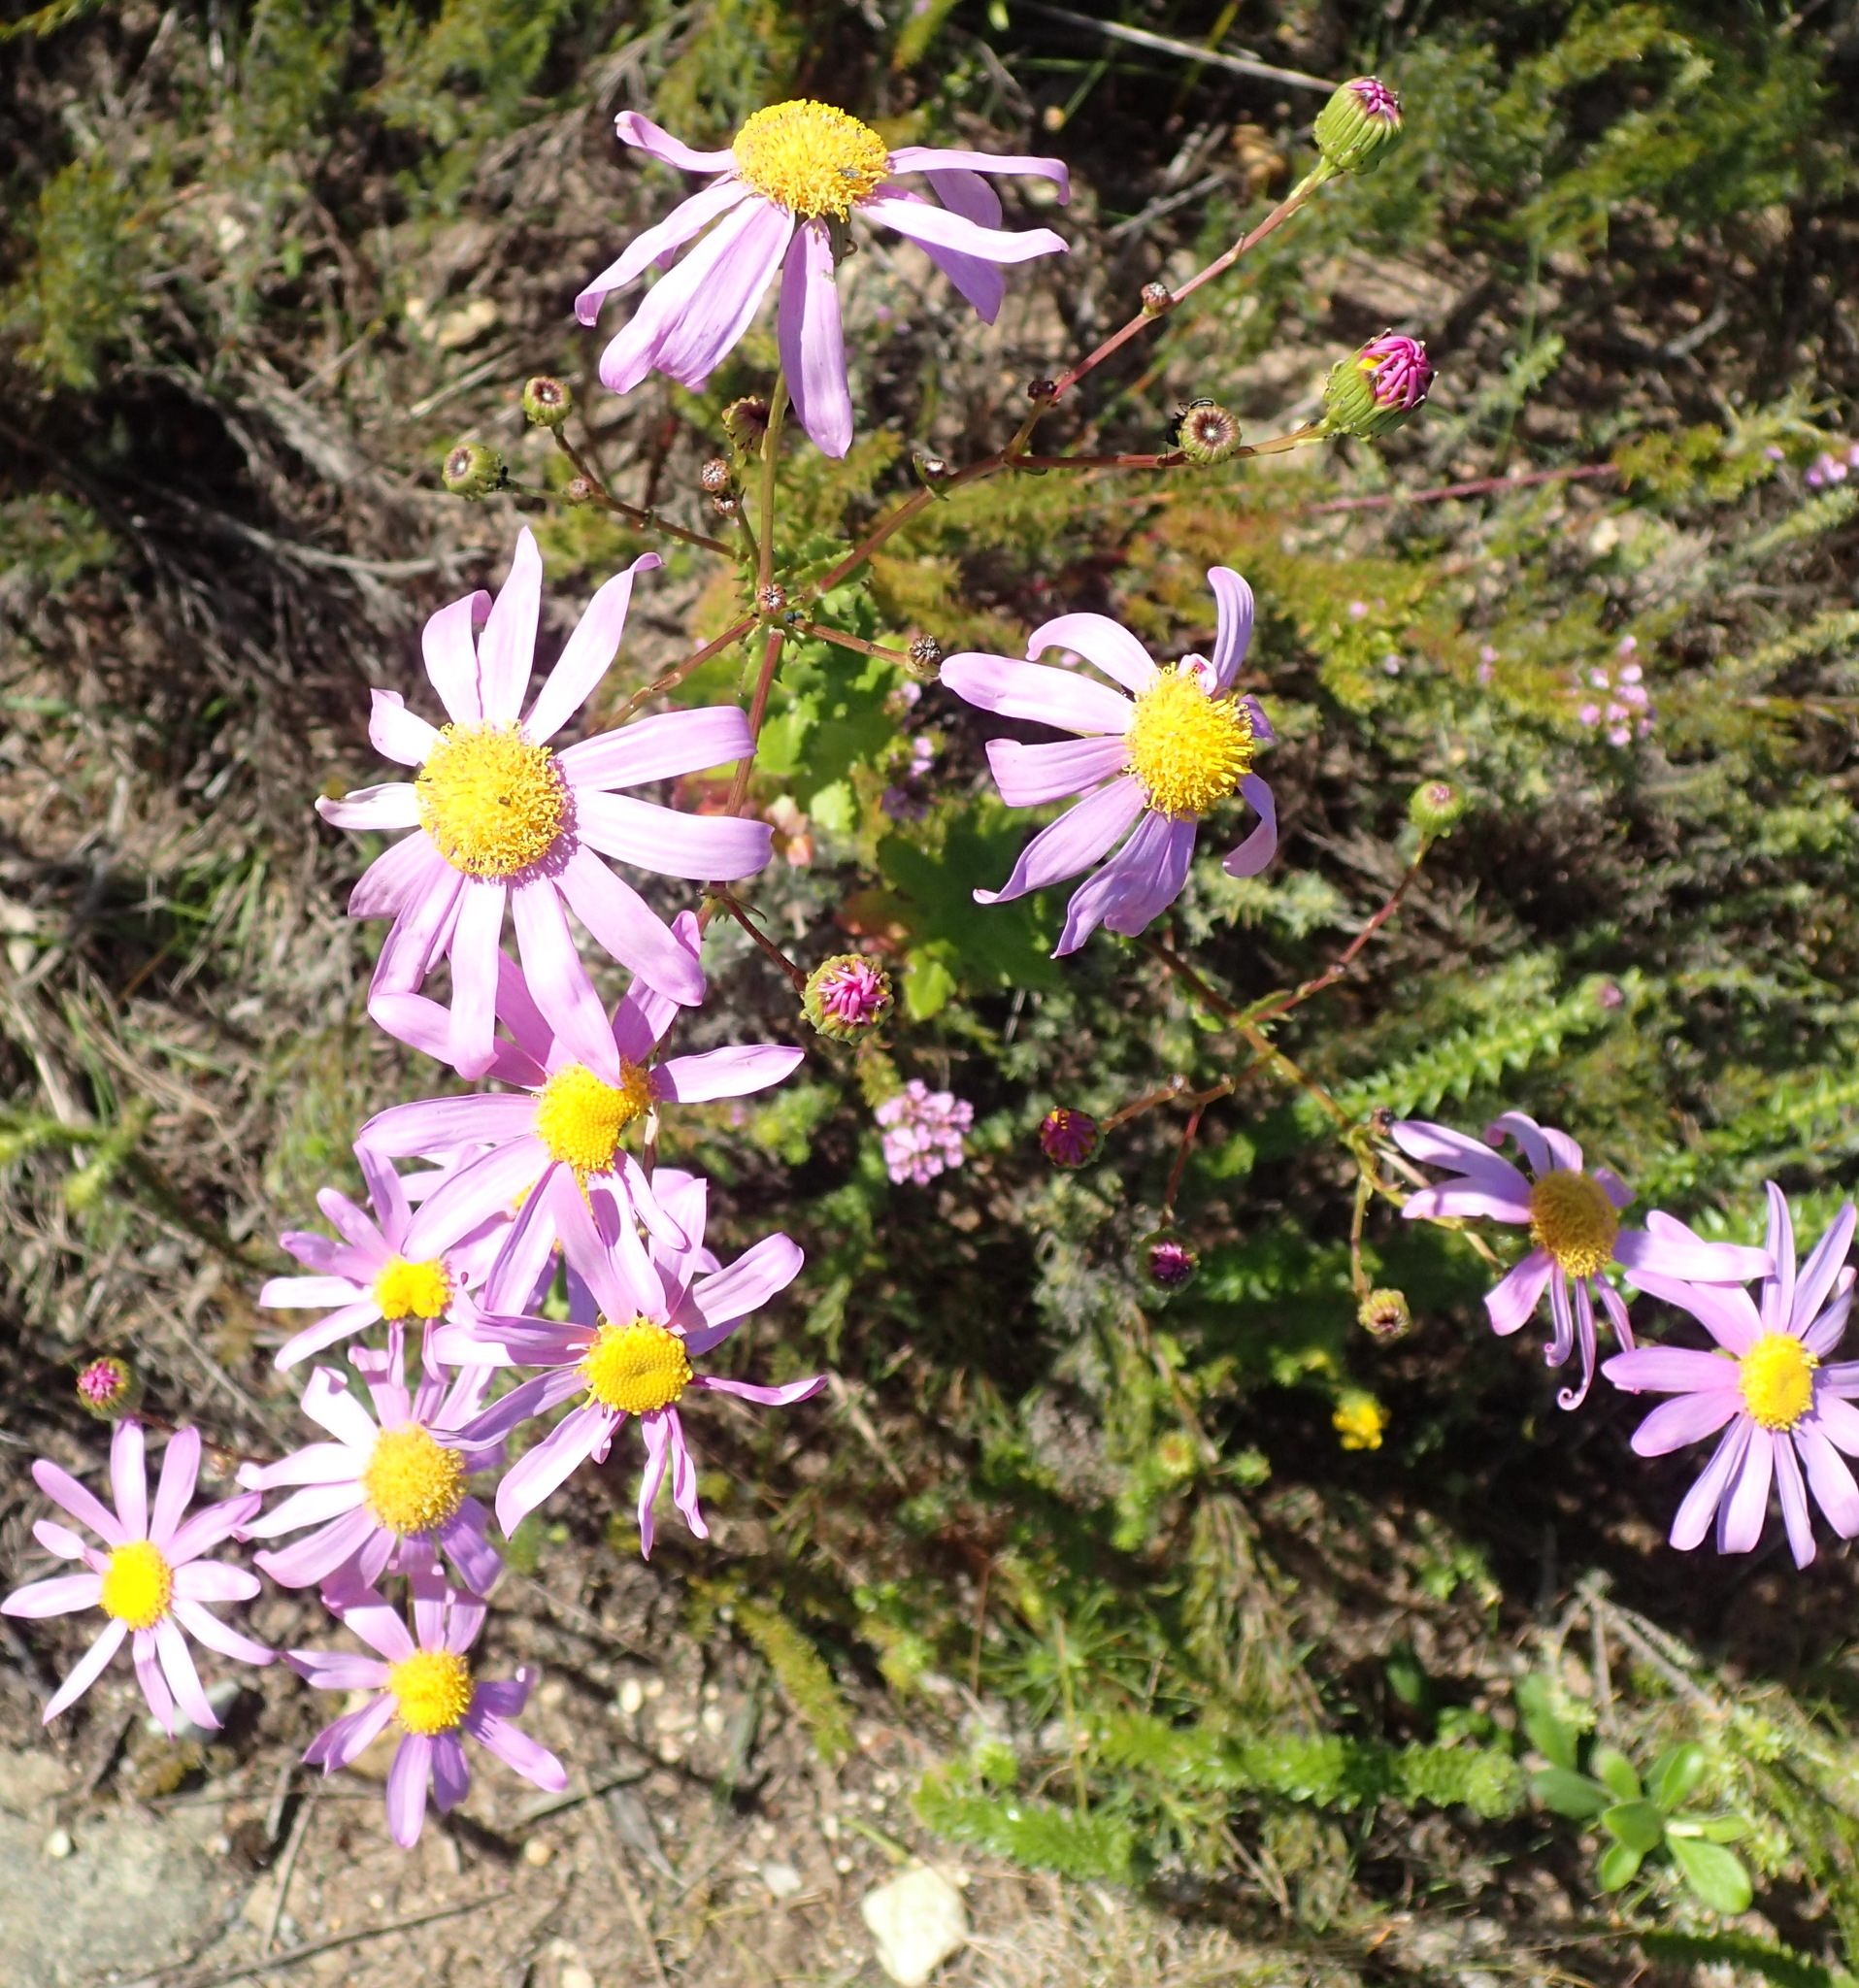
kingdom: Plantae
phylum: Tracheophyta
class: Magnoliopsida
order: Asterales
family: Asteraceae
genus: Senecio
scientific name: Senecio glastifolius
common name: Woad-leaved ragwort
